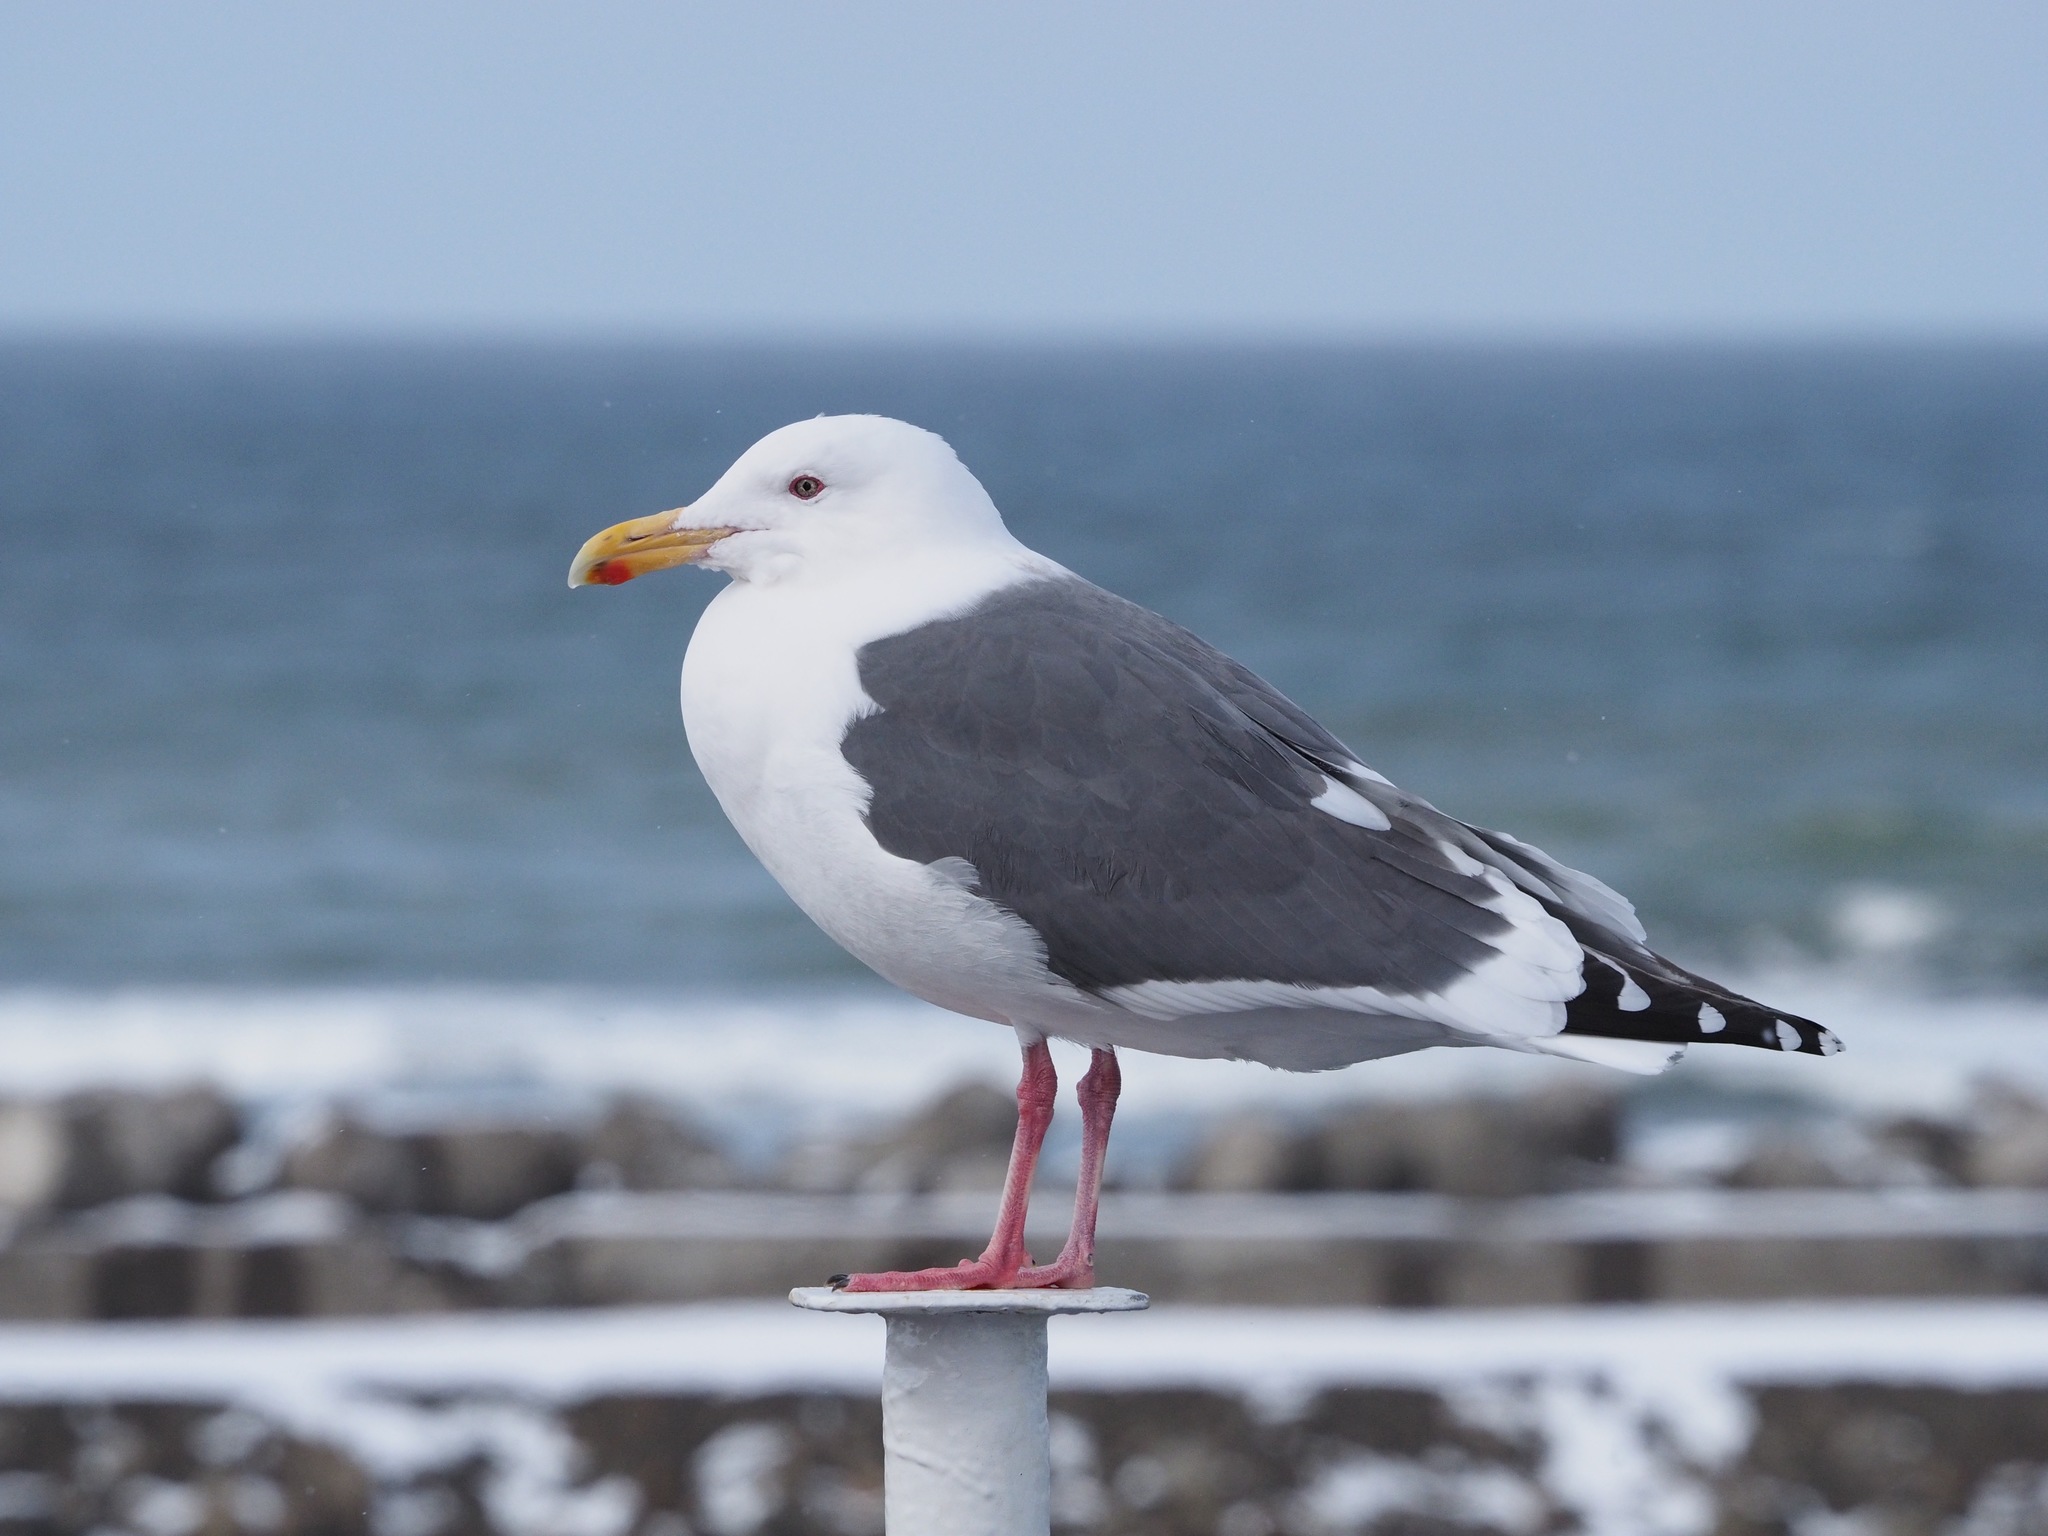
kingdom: Animalia
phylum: Chordata
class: Aves
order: Charadriiformes
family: Laridae
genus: Larus
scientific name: Larus schistisagus
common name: Slaty-backed gull
